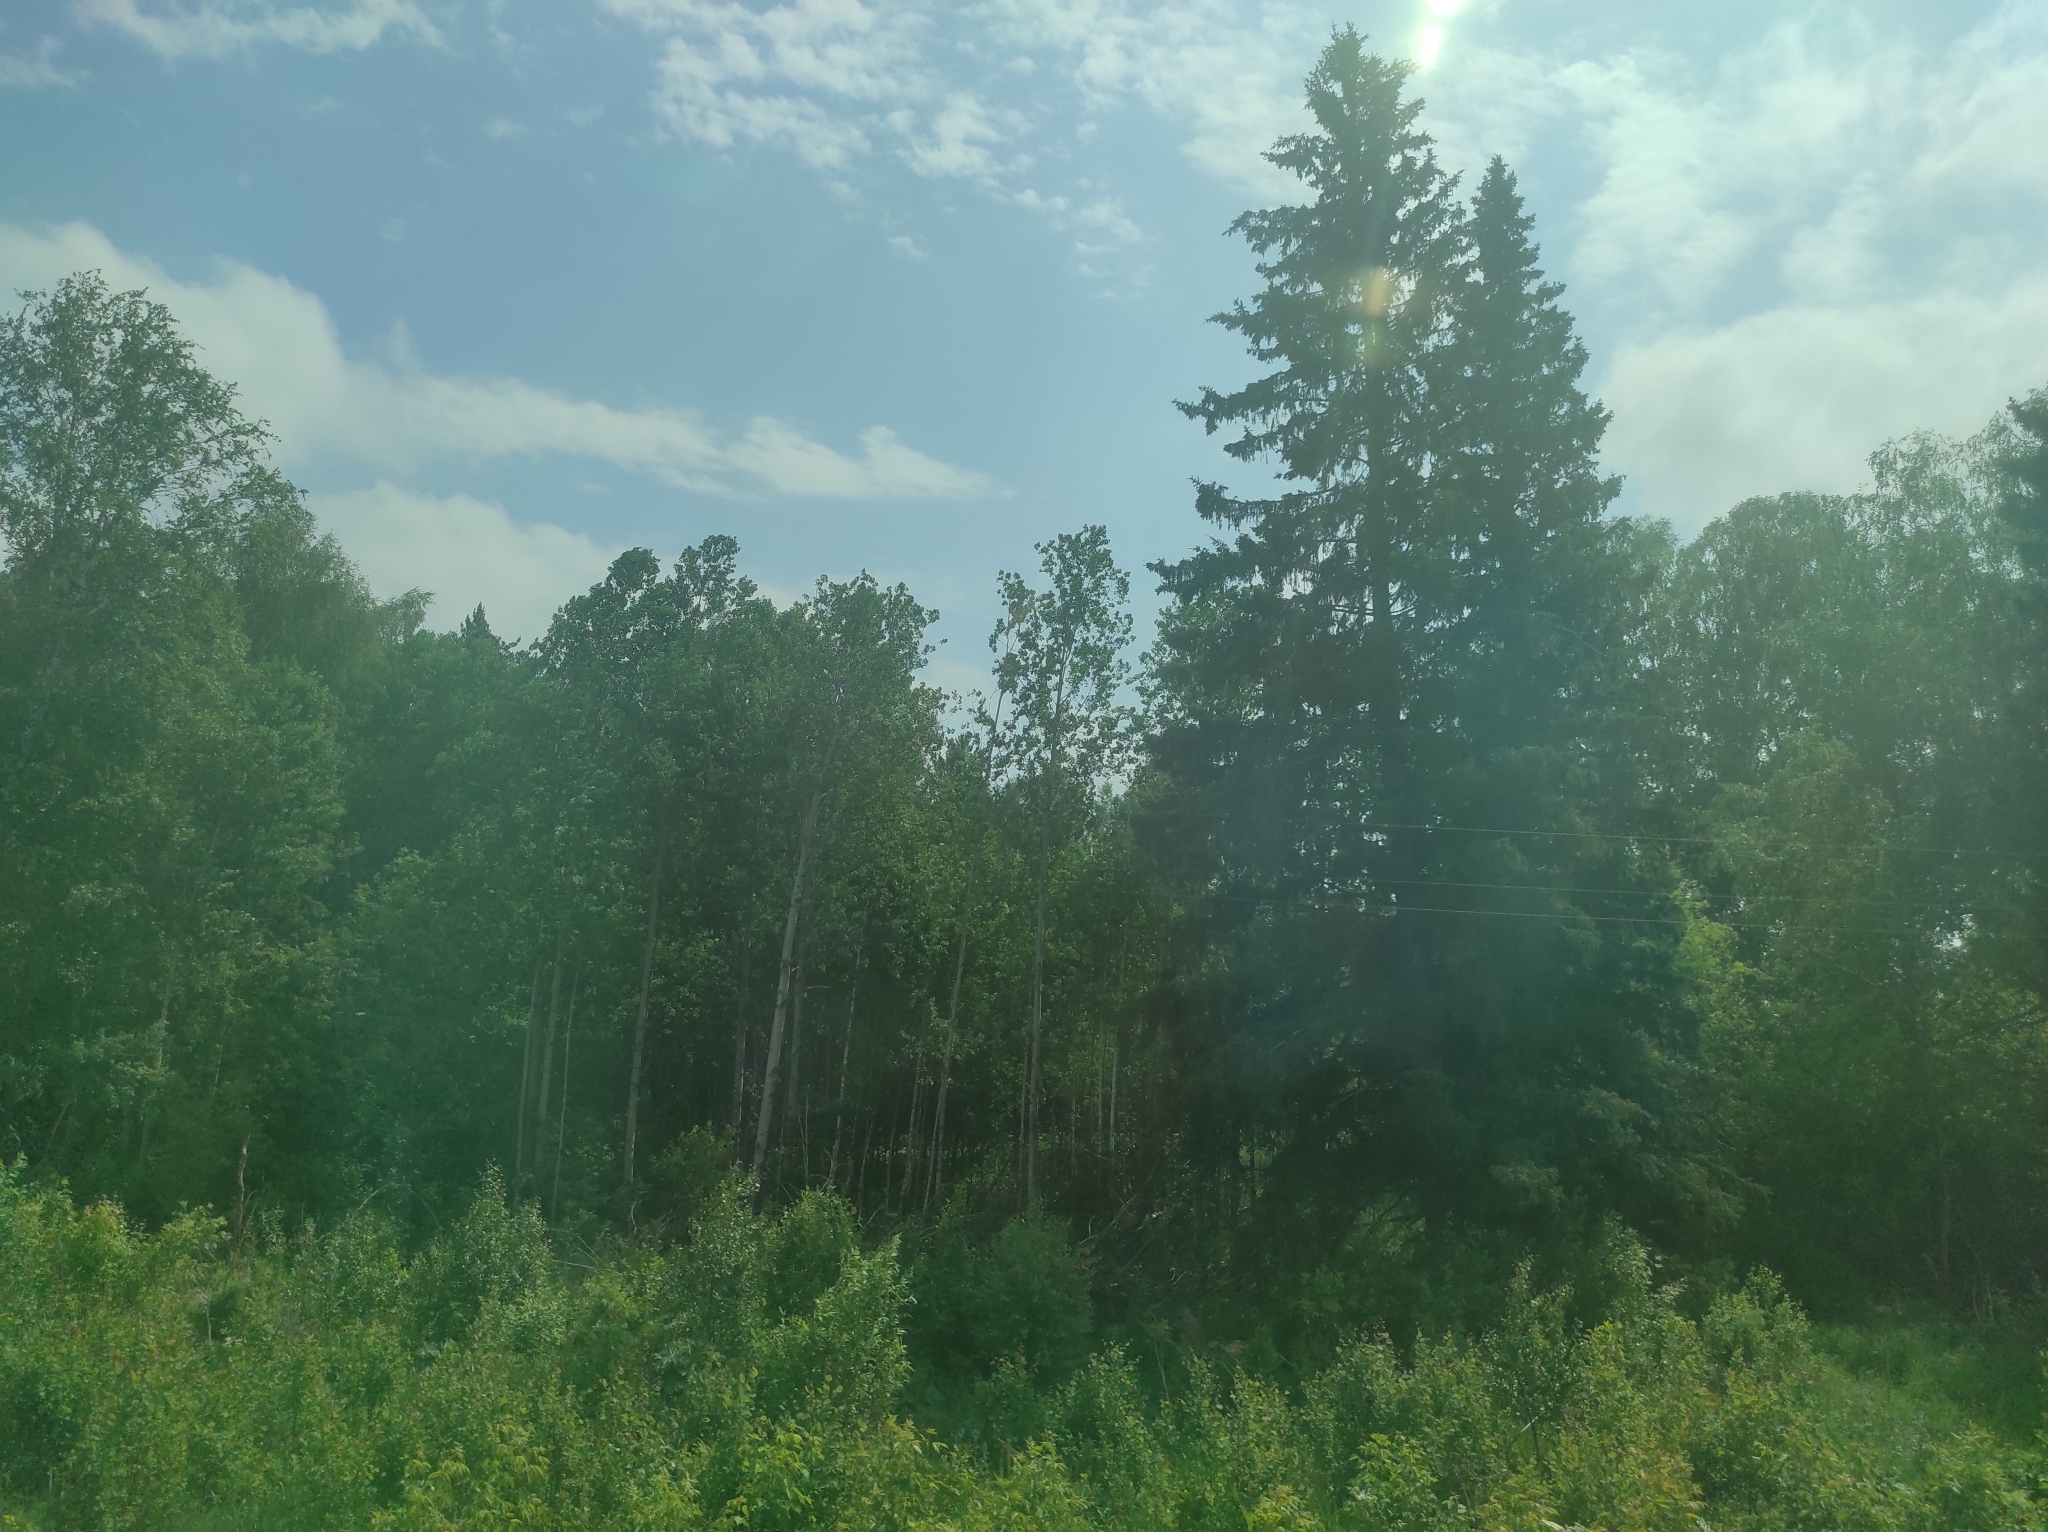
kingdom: Plantae
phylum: Tracheophyta
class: Pinopsida
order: Pinales
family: Pinaceae
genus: Picea
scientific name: Picea obovata
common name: Siberian spruce
